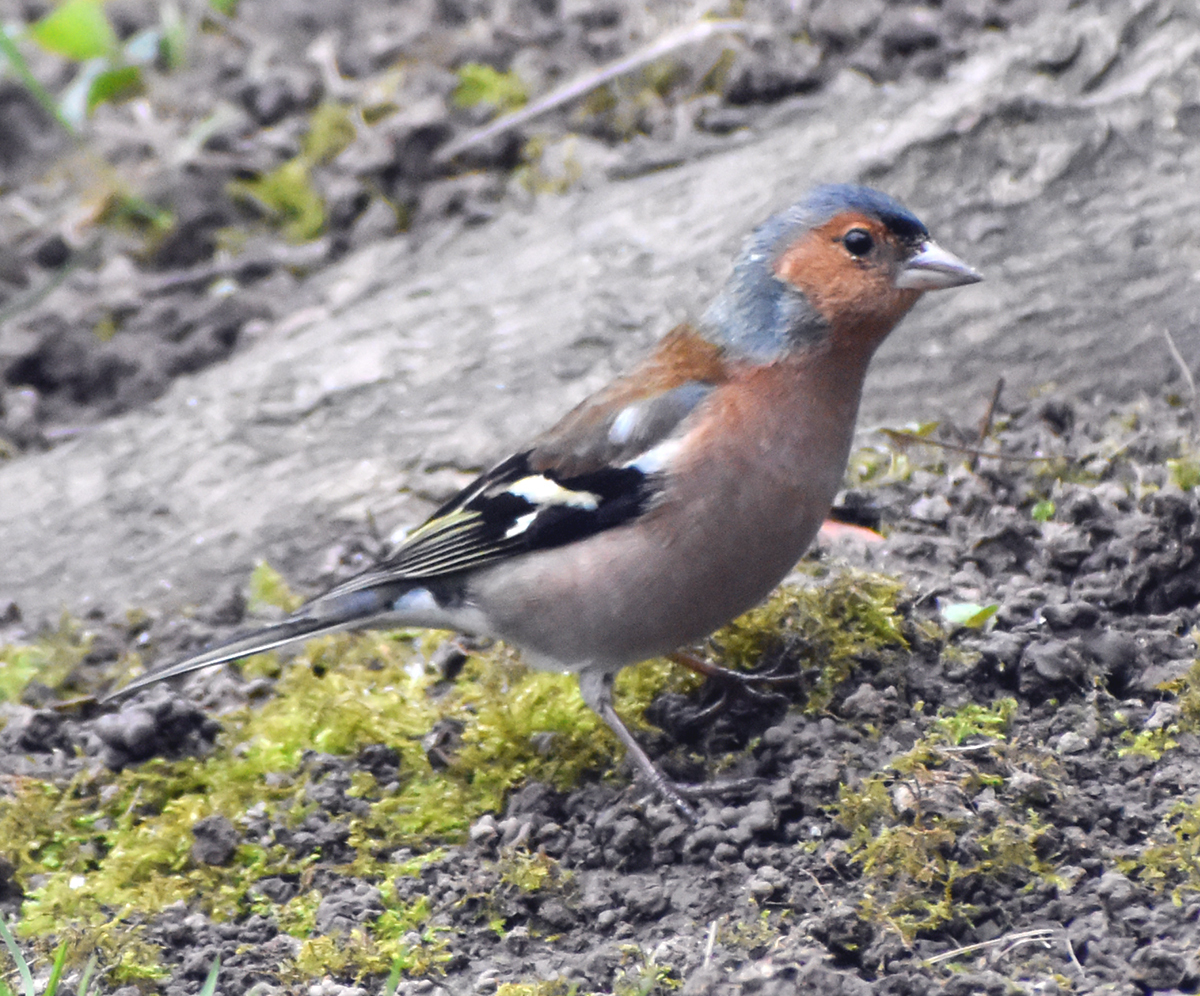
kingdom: Animalia
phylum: Chordata
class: Aves
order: Passeriformes
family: Fringillidae
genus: Fringilla
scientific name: Fringilla coelebs
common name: Common chaffinch
